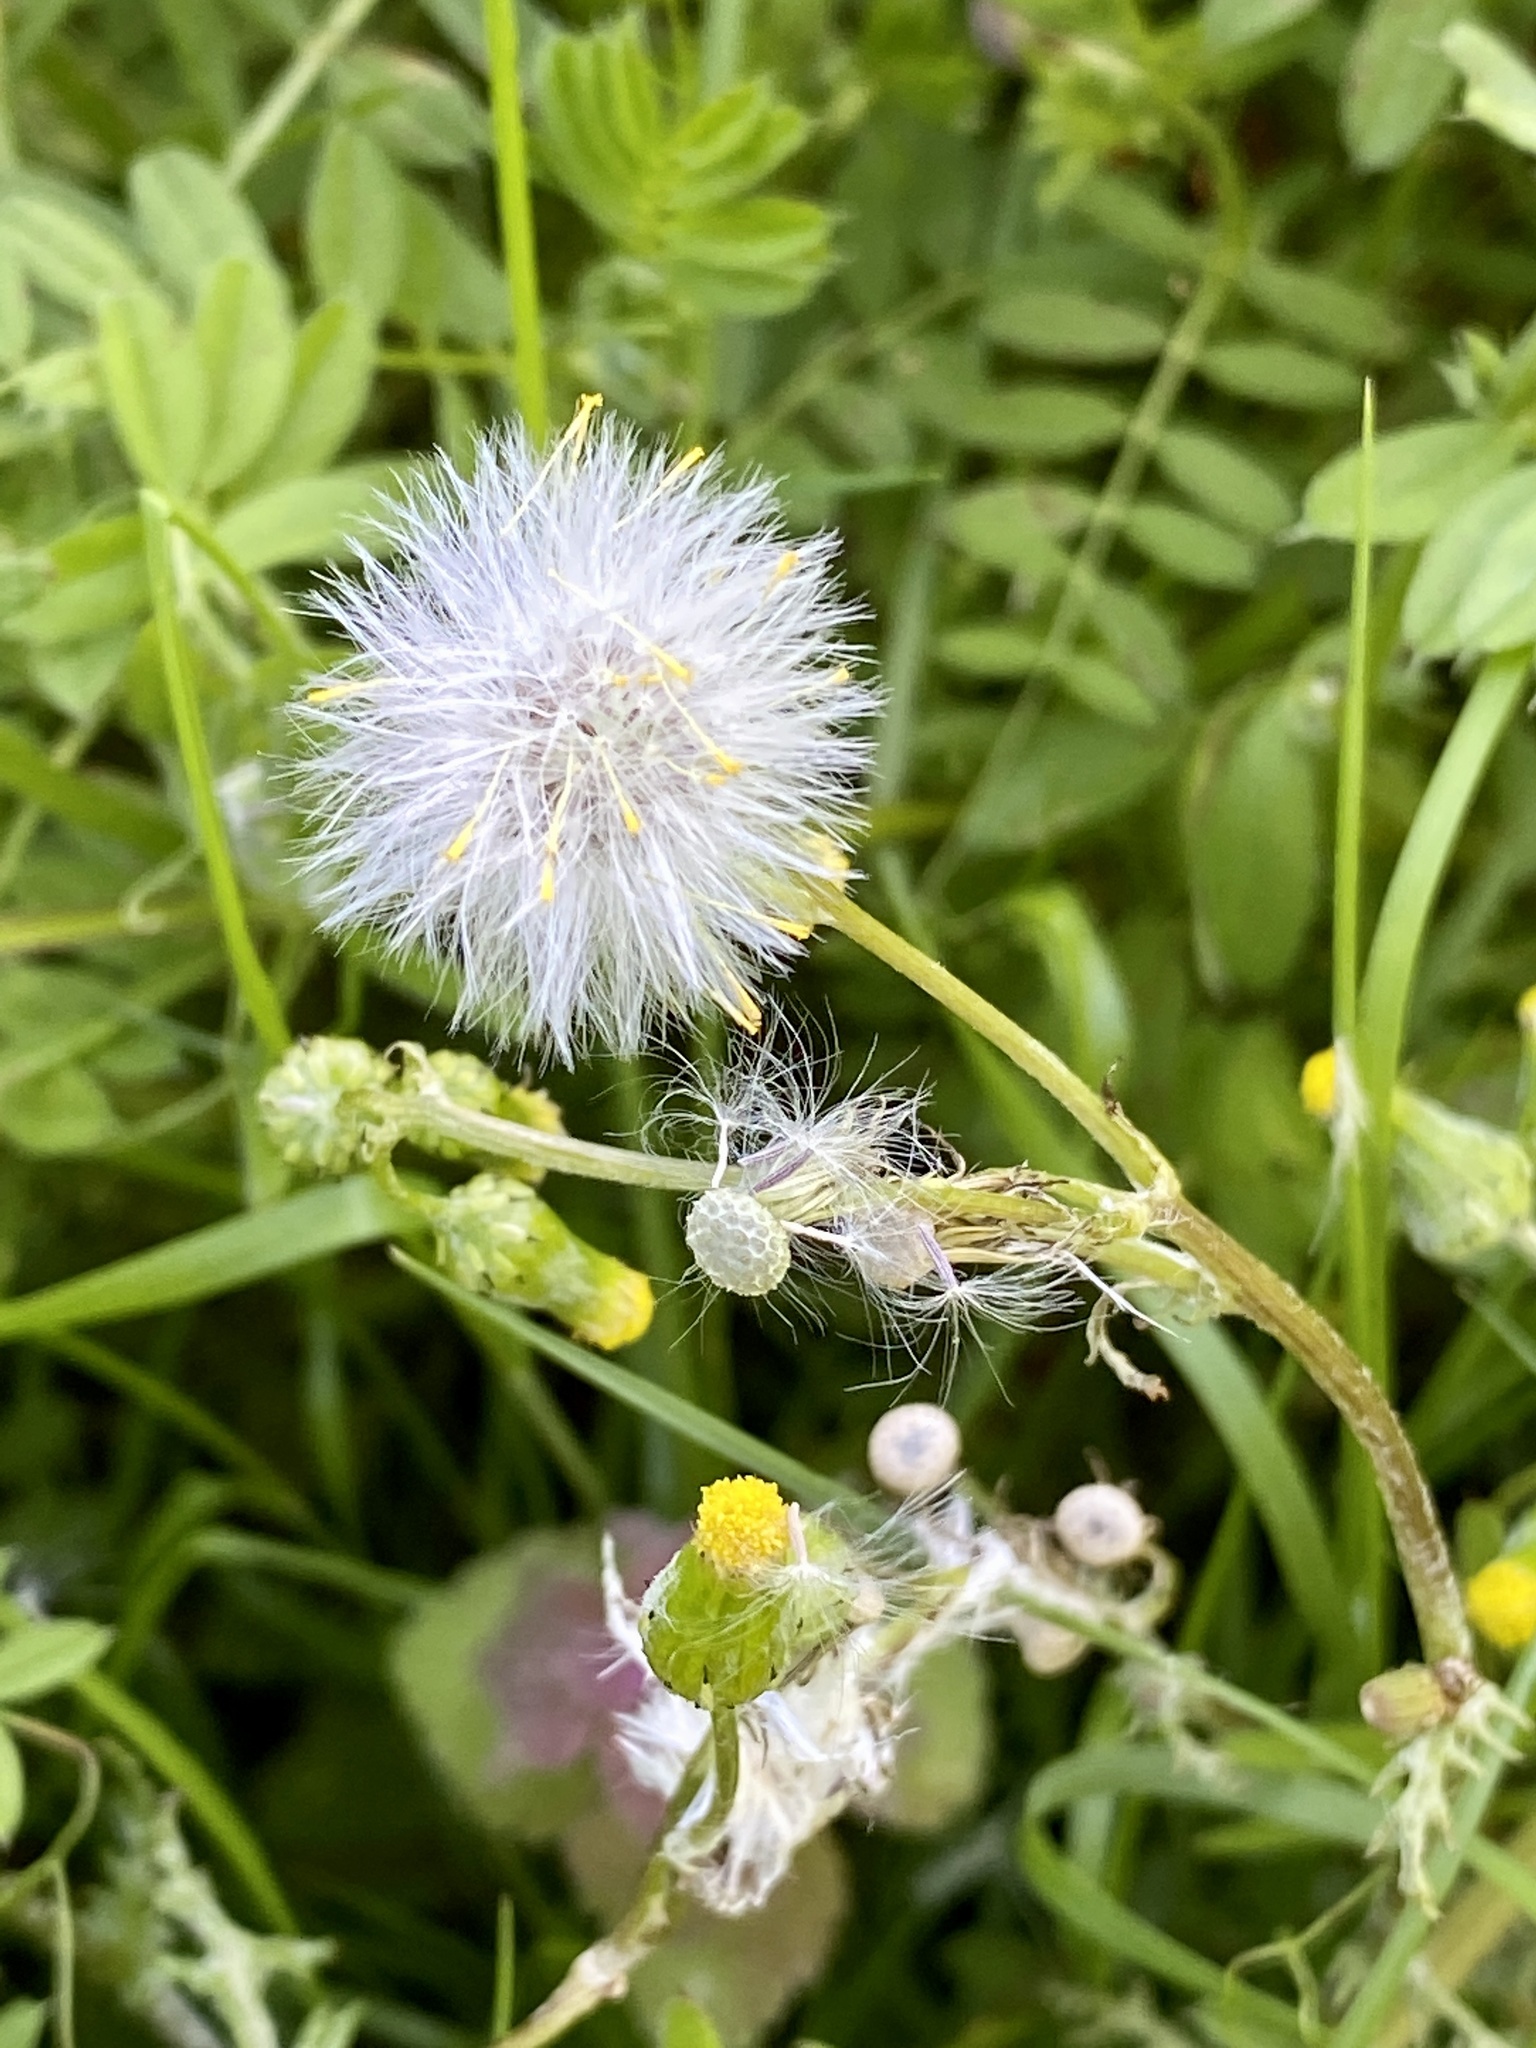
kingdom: Plantae
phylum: Tracheophyta
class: Magnoliopsida
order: Asterales
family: Asteraceae
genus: Senecio
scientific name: Senecio vulgaris
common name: Old-man-in-the-spring
